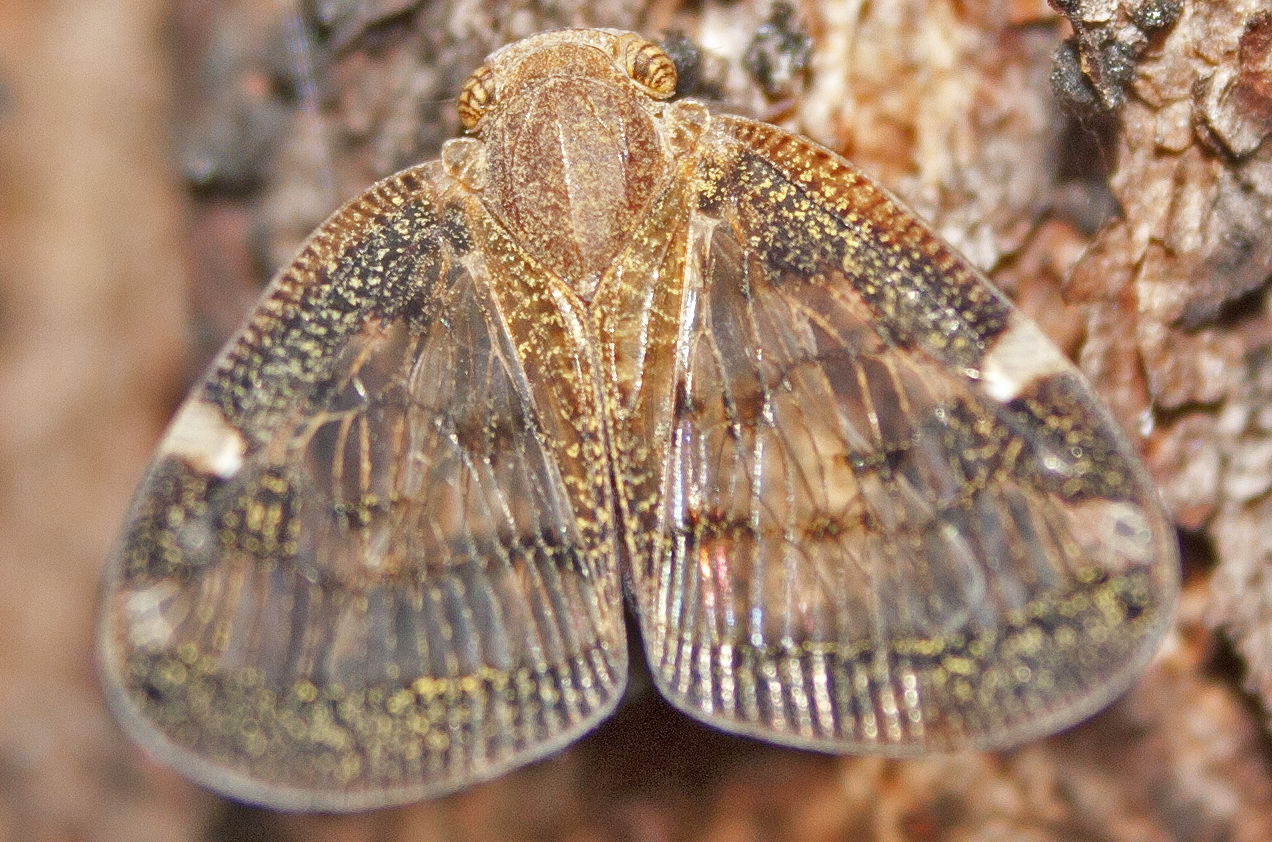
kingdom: Animalia
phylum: Arthropoda
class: Insecta
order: Hemiptera
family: Ricaniidae
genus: Scolypopa
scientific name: Scolypopa australis
